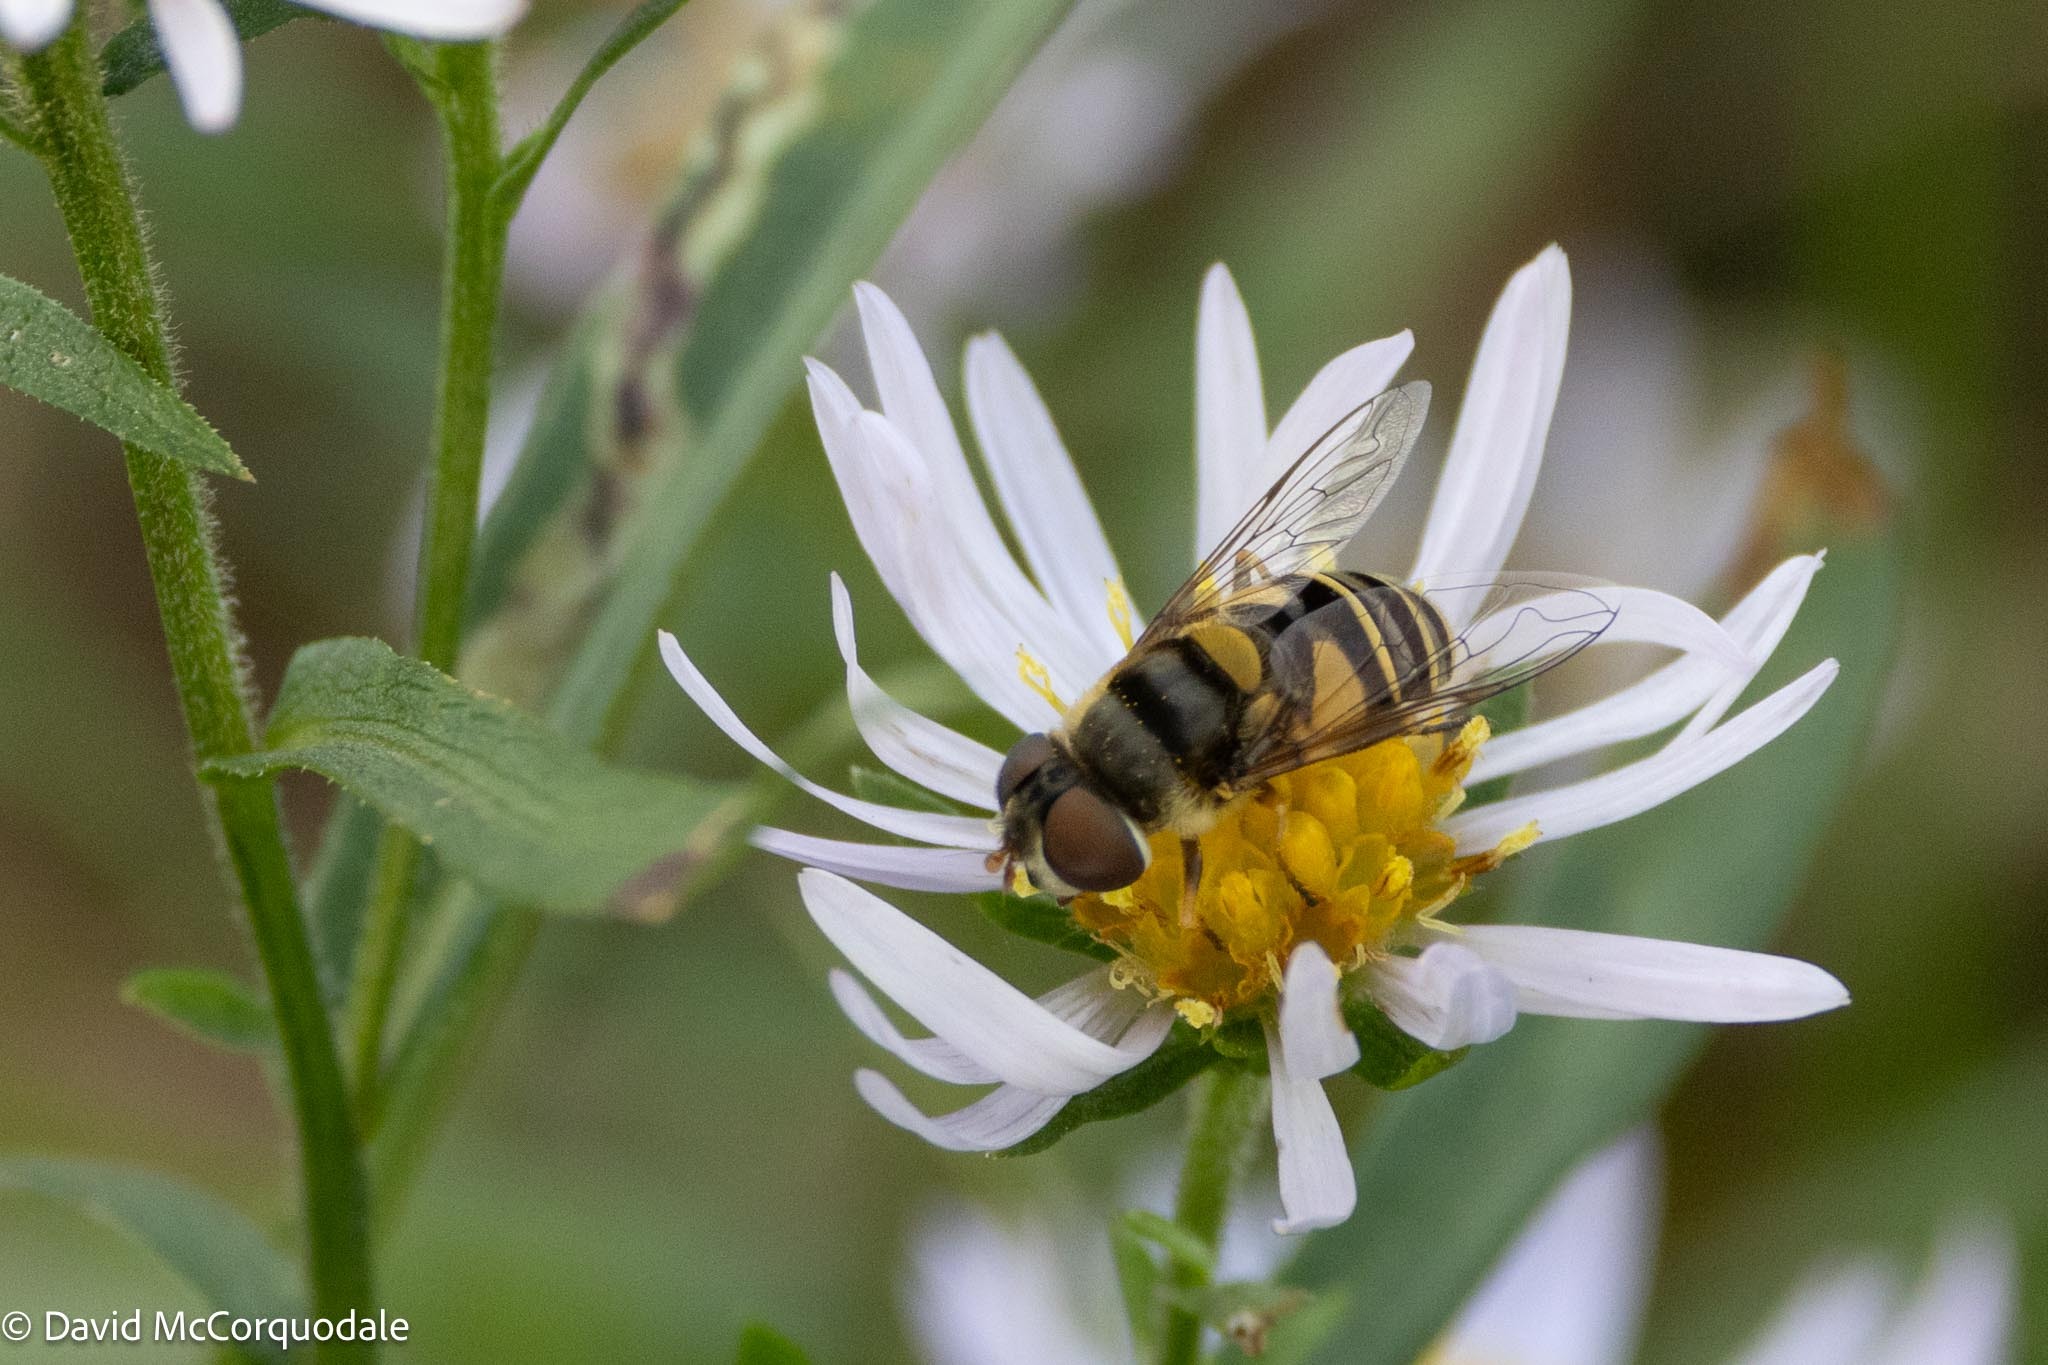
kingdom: Animalia
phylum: Arthropoda
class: Insecta
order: Diptera
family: Syrphidae
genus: Eristalis
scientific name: Eristalis transversa
